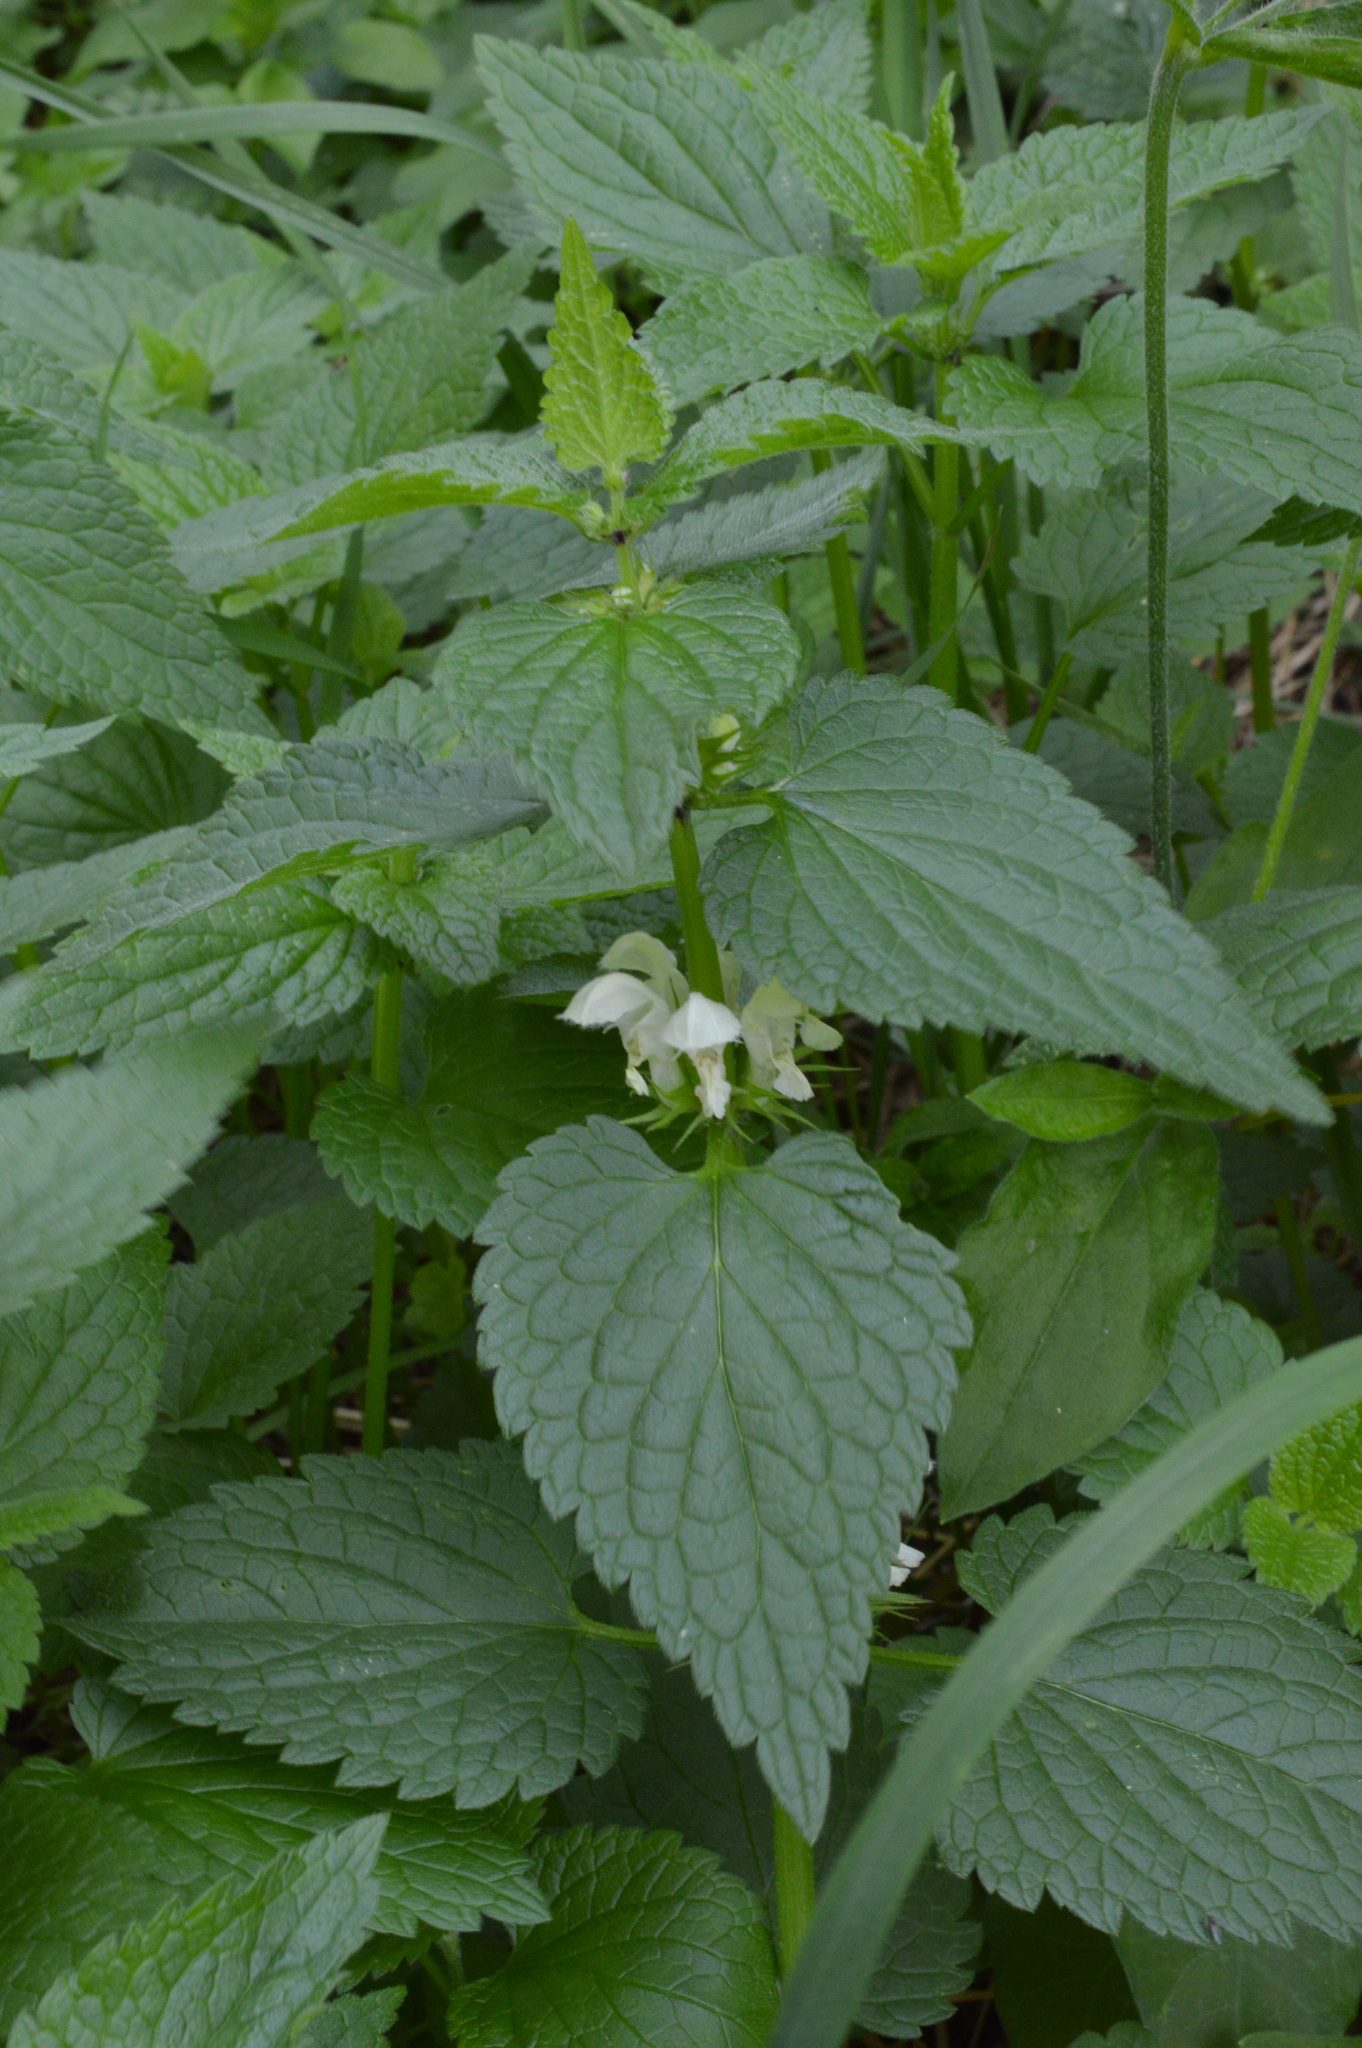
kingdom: Plantae
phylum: Tracheophyta
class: Magnoliopsida
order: Lamiales
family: Lamiaceae
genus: Lamium
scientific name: Lamium album
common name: White dead-nettle
